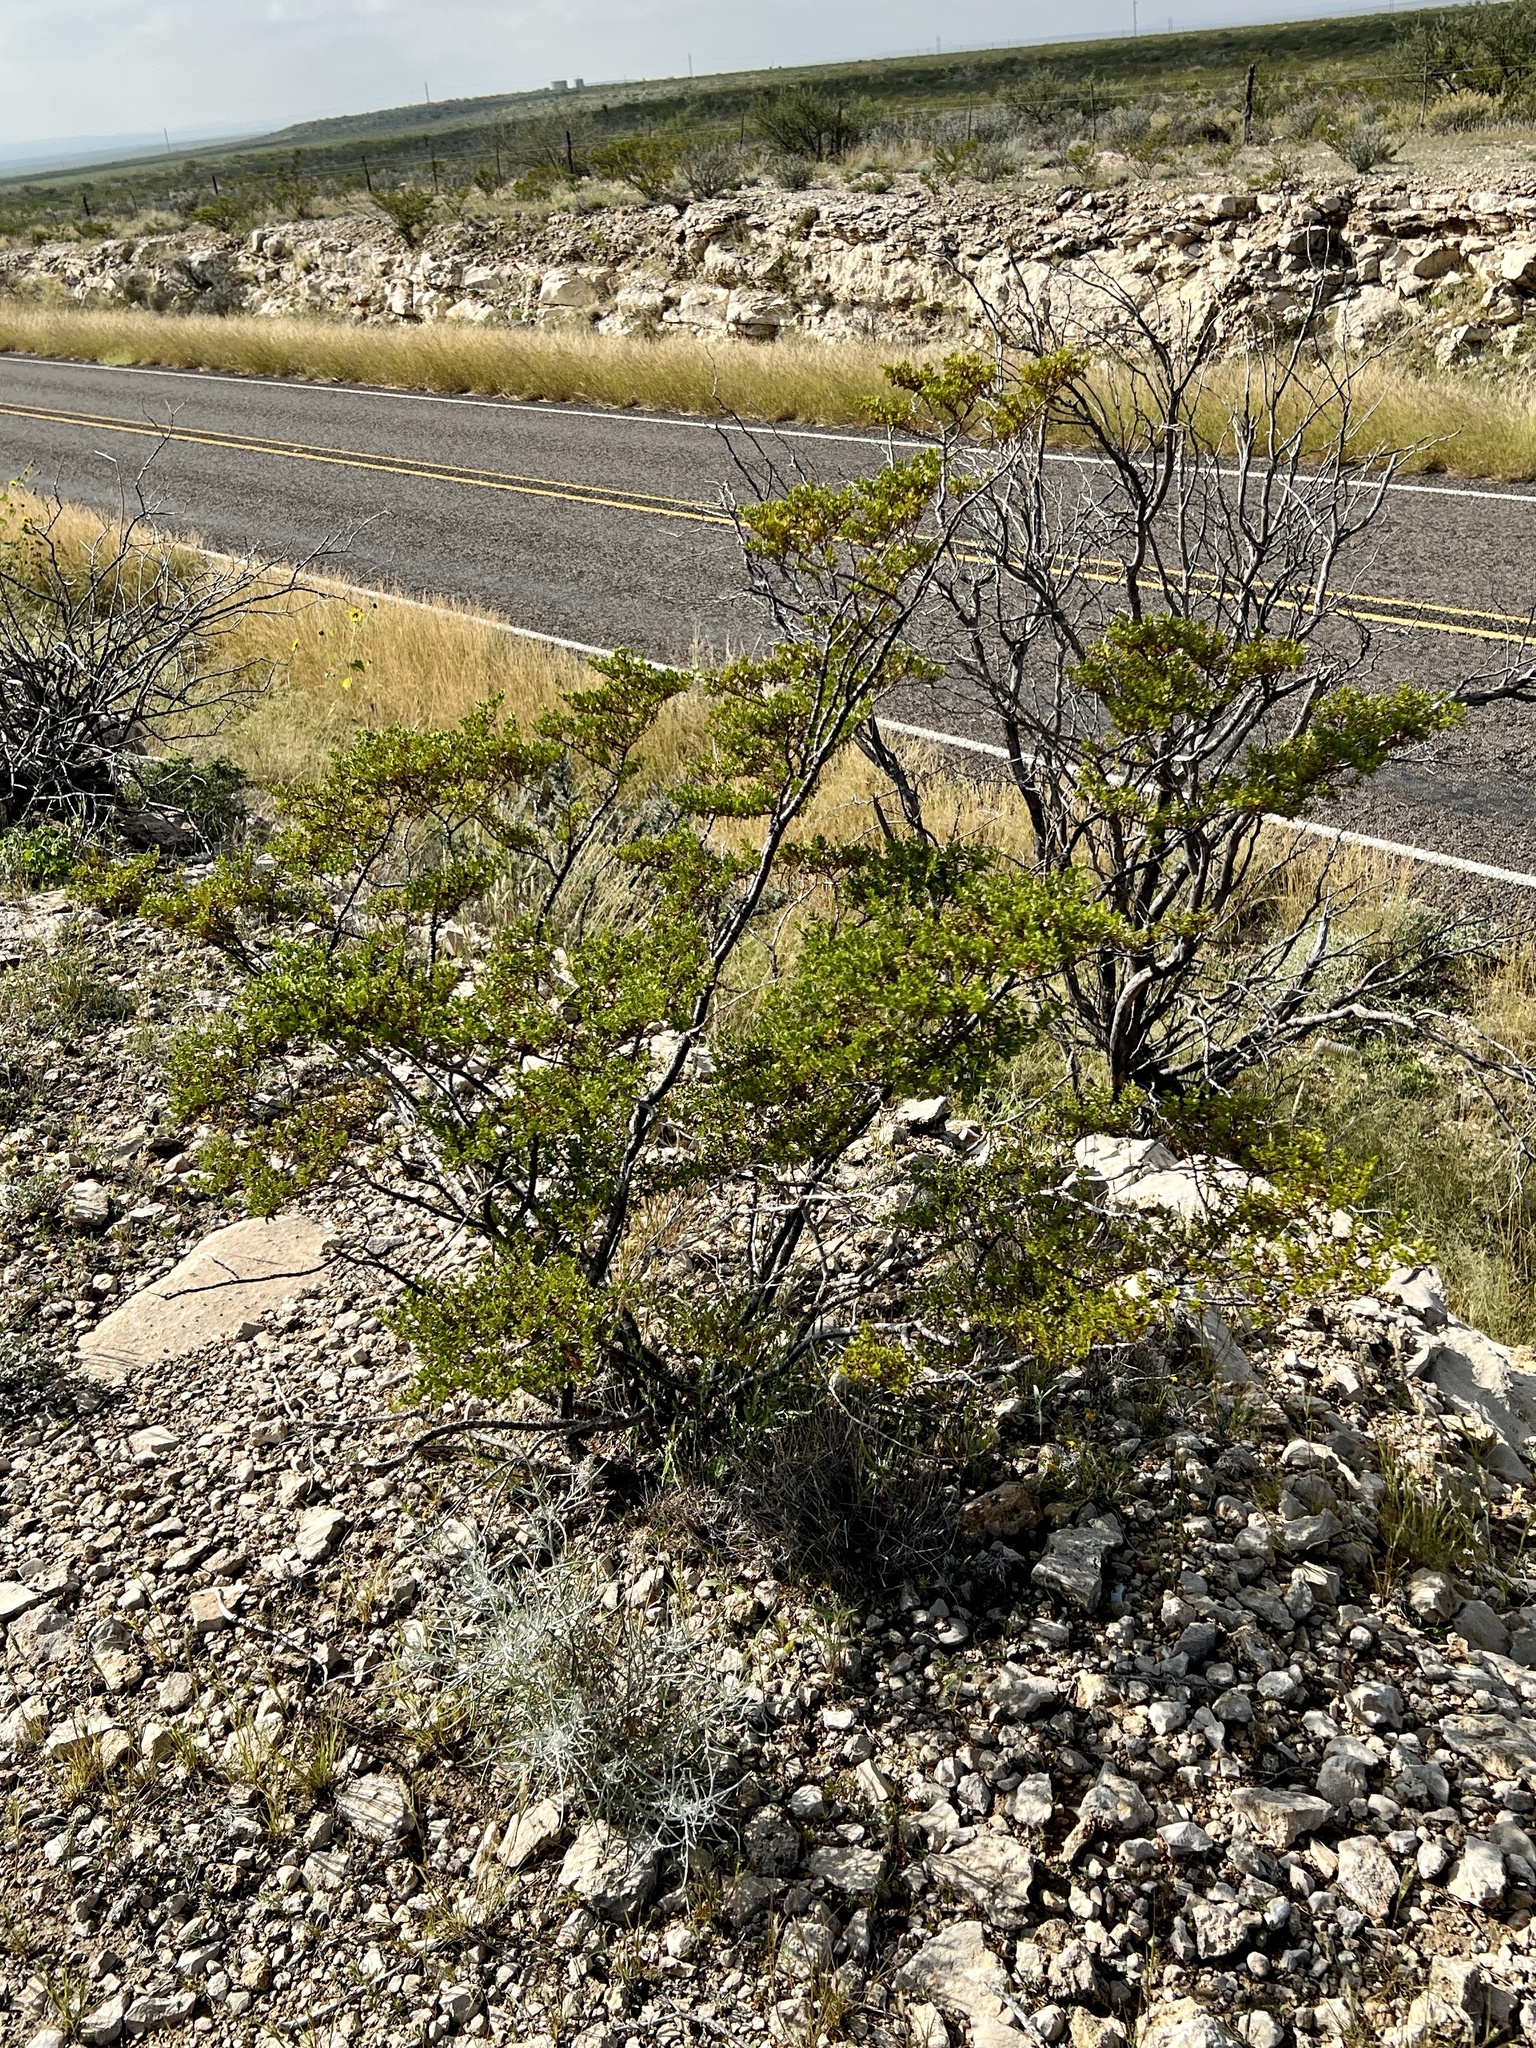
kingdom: Plantae
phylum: Tracheophyta
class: Magnoliopsida
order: Zygophyllales
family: Zygophyllaceae
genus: Larrea
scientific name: Larrea tridentata
